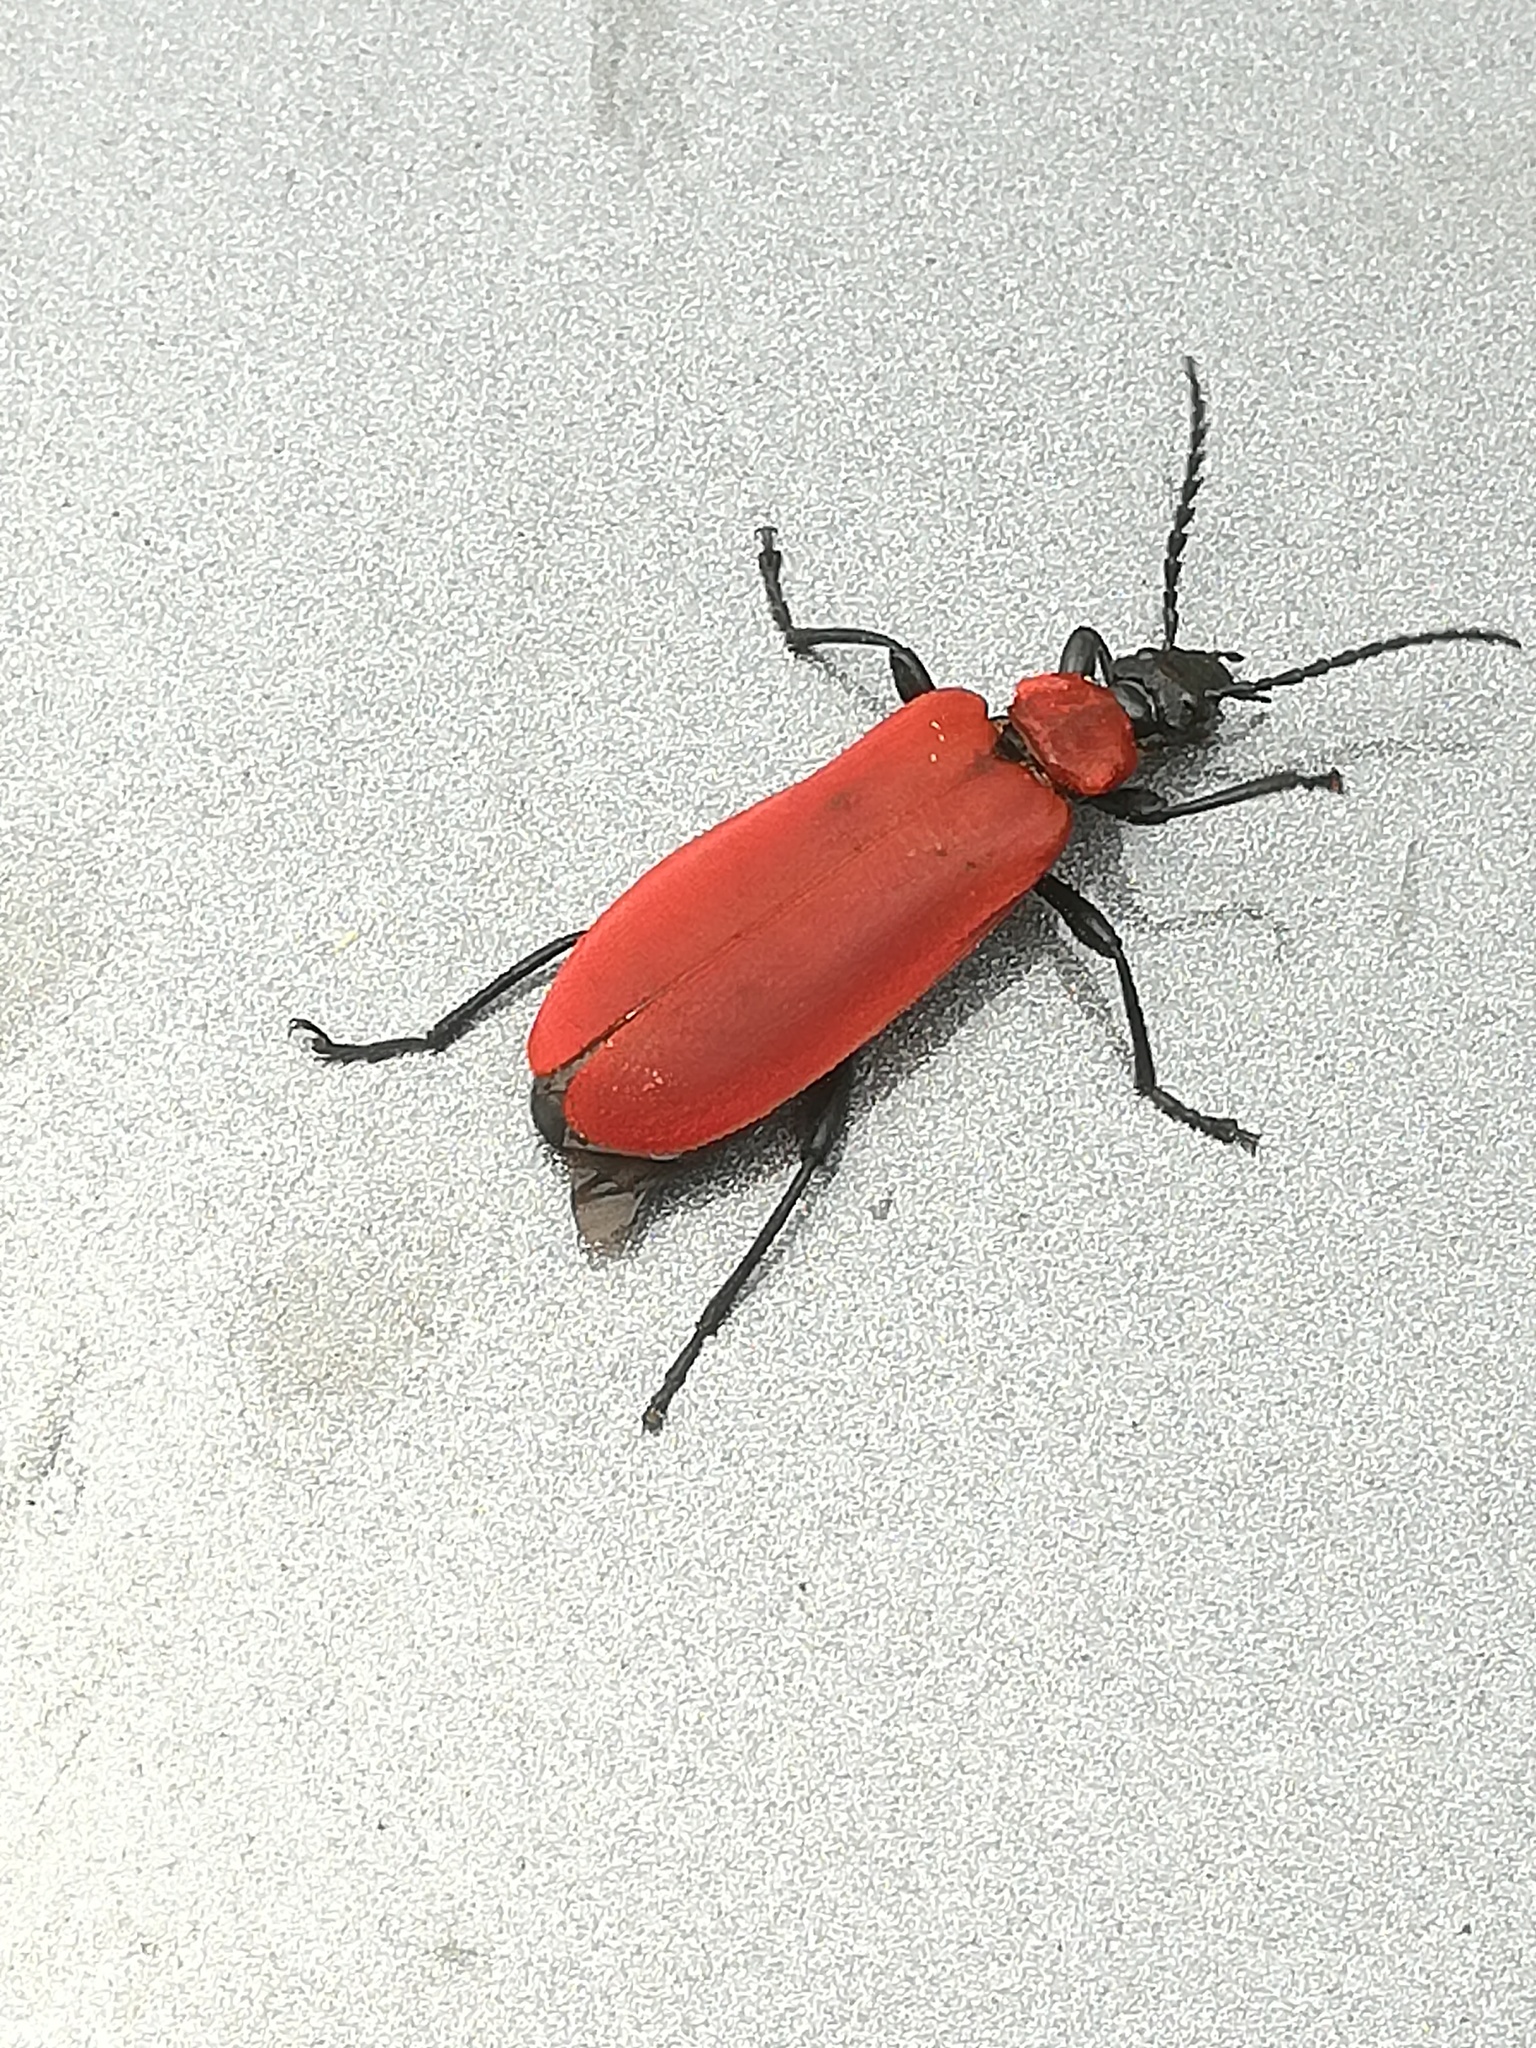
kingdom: Animalia
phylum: Arthropoda
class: Insecta
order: Coleoptera
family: Pyrochroidae
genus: Pyrochroa
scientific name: Pyrochroa coccinea
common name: Black-headed cardinal beetle
